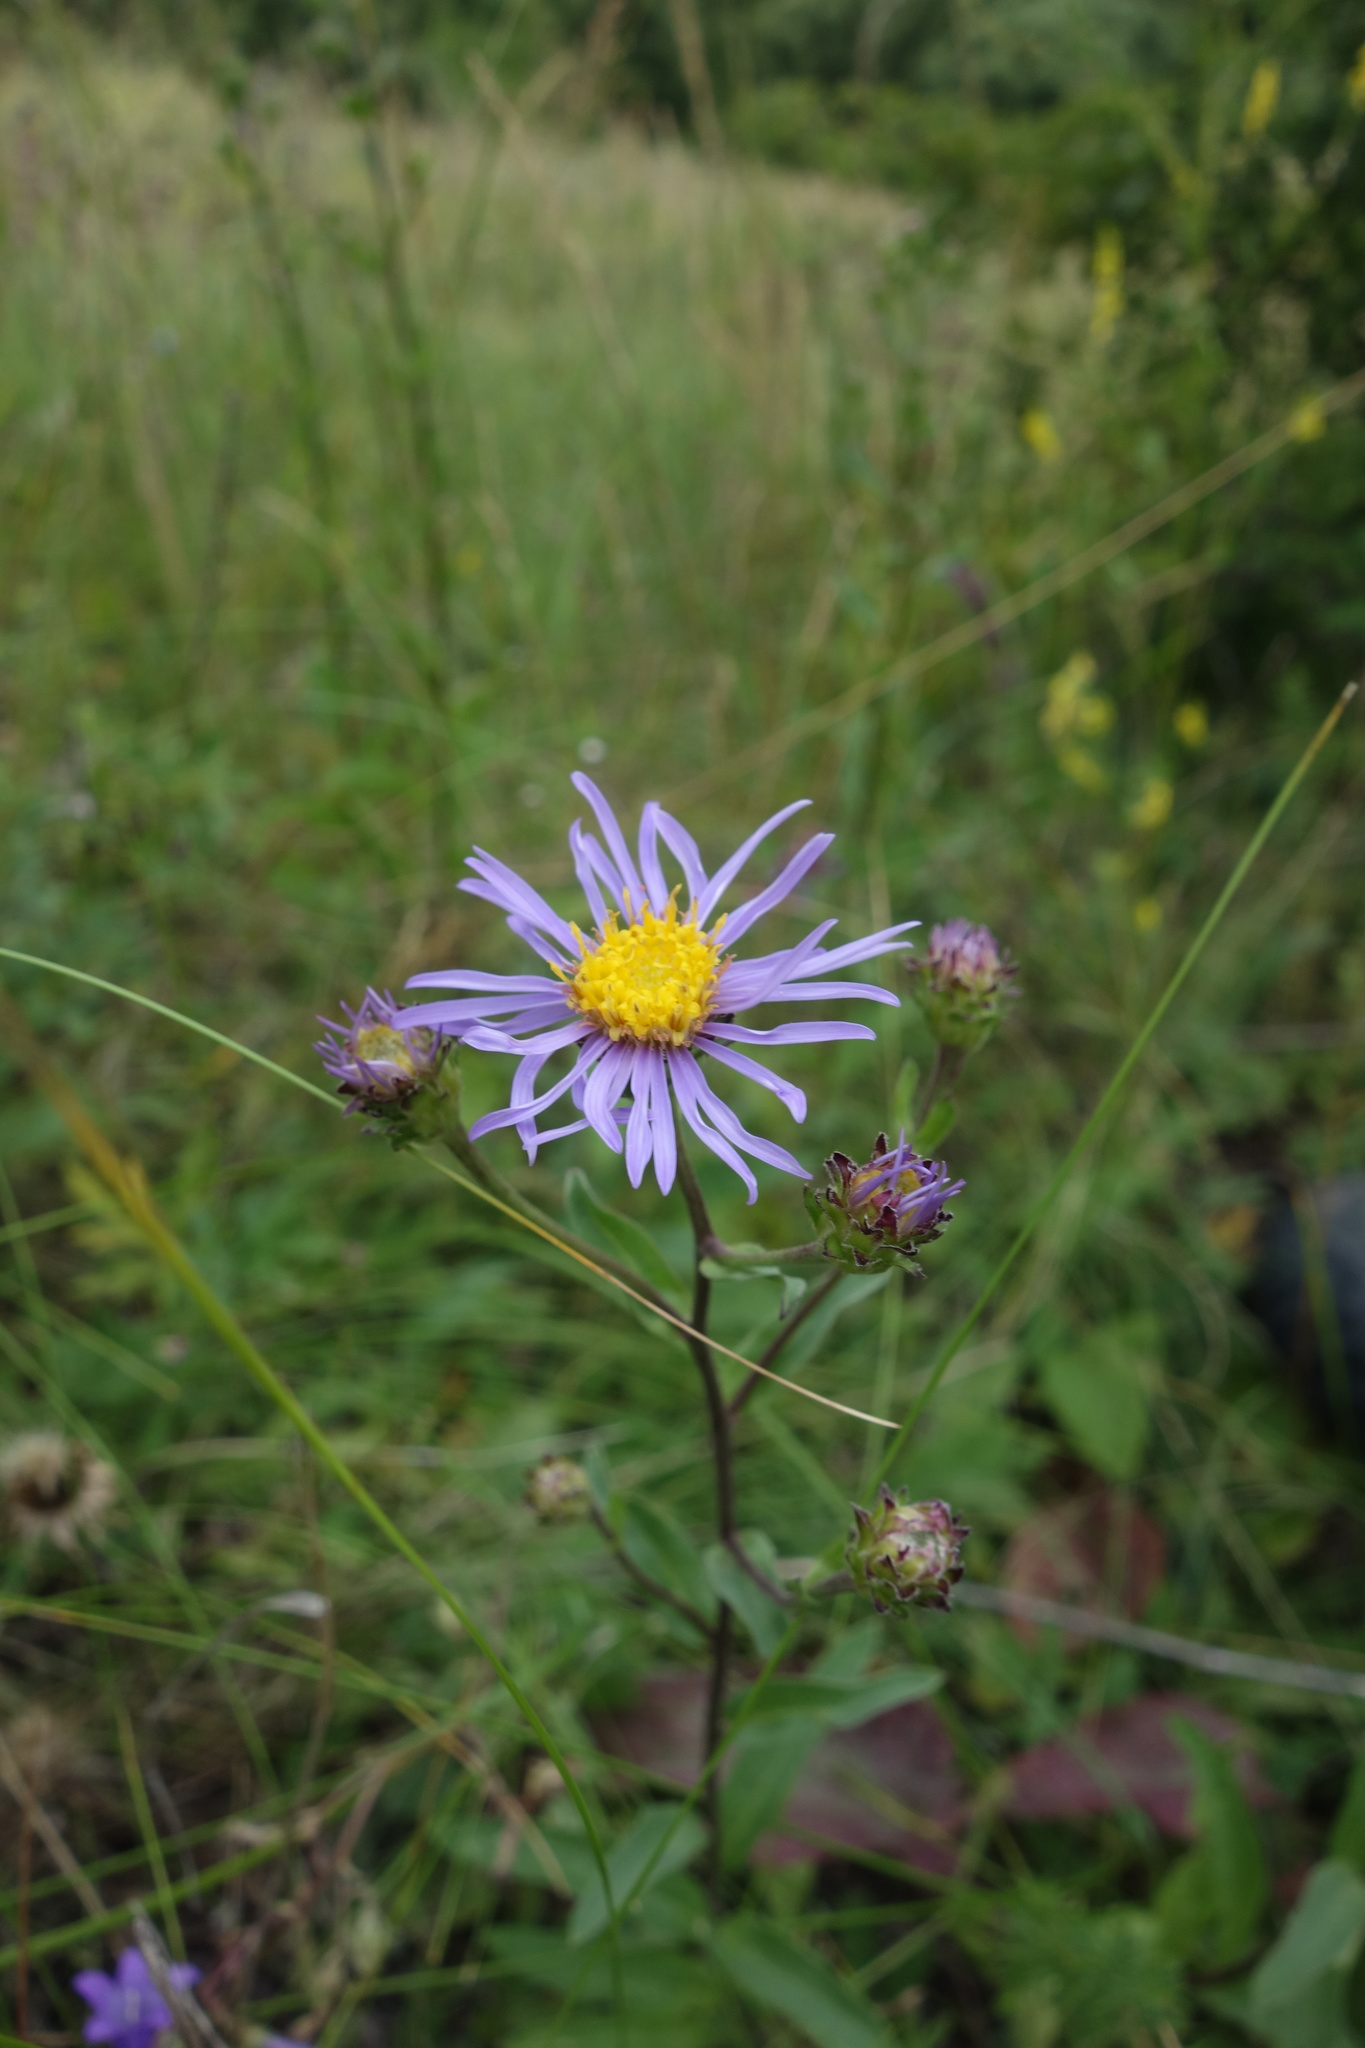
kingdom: Plantae
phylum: Tracheophyta
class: Magnoliopsida
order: Asterales
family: Asteraceae
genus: Aster
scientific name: Aster amellus
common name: European michaelmas daisy
